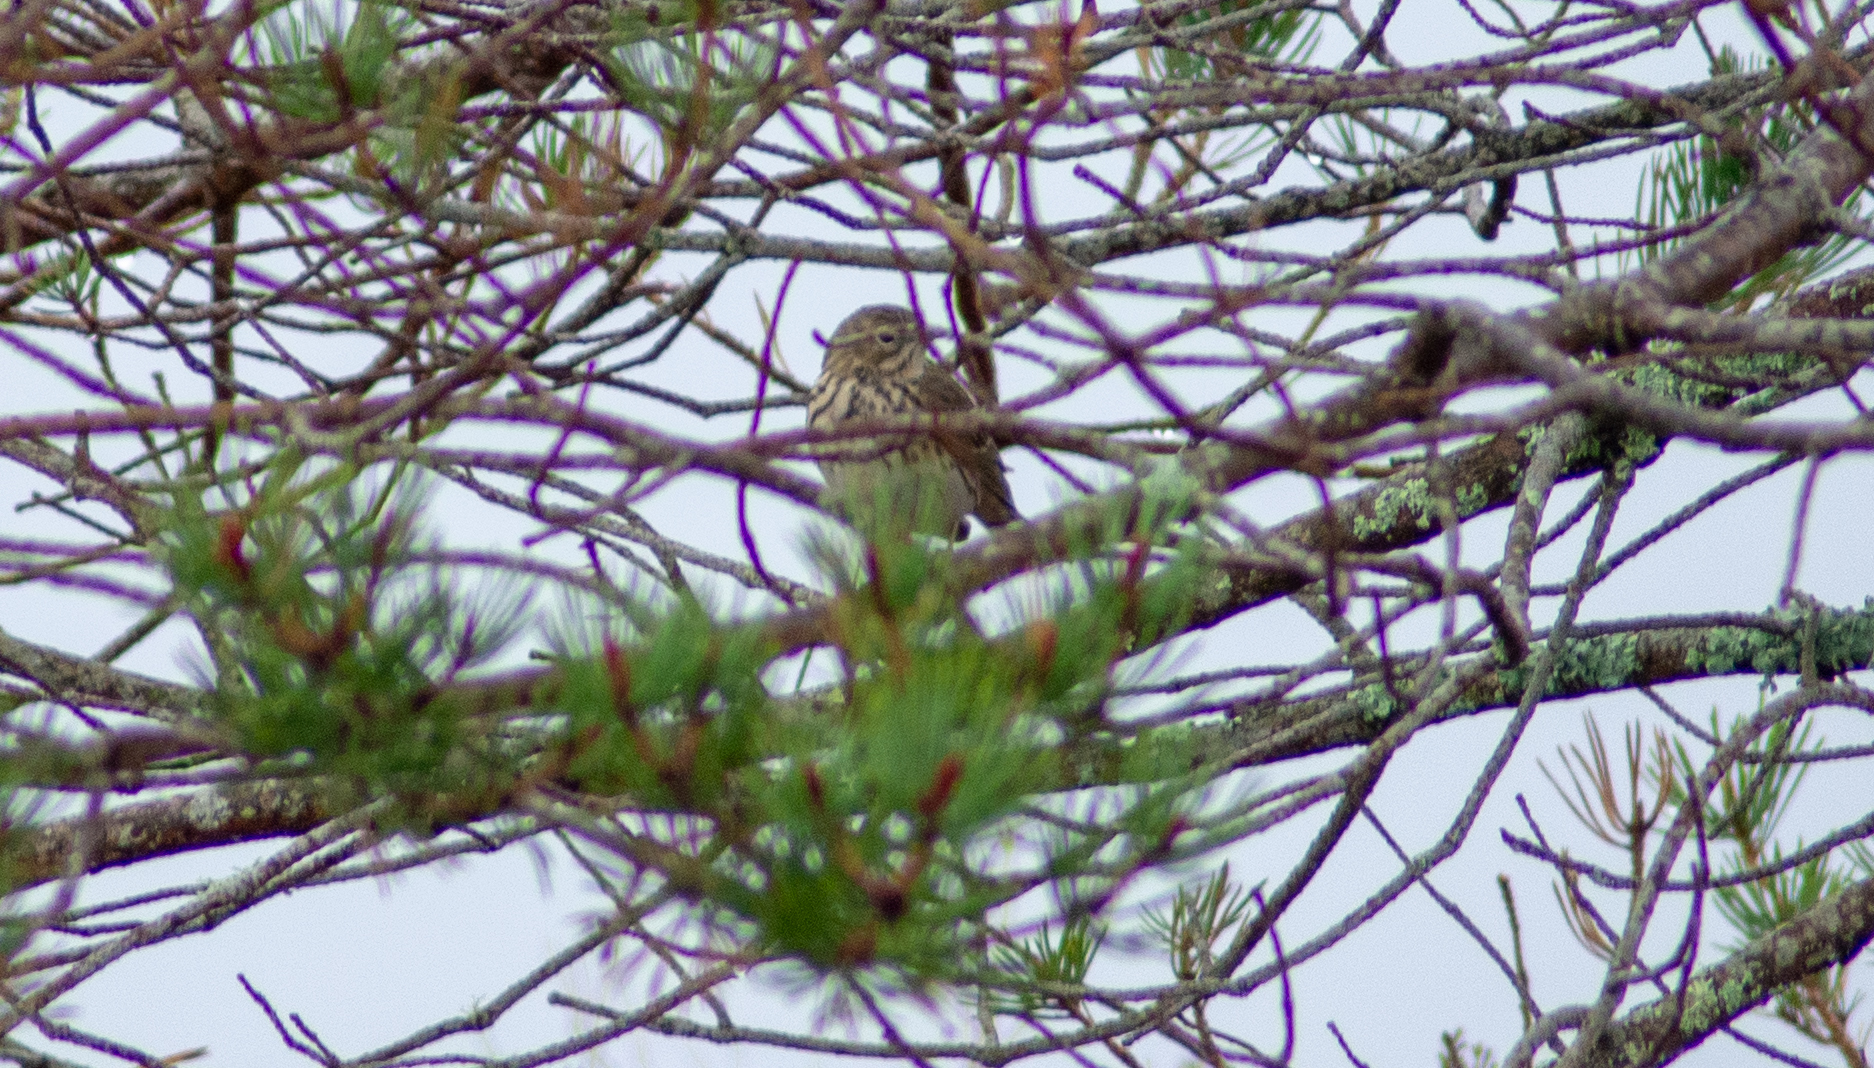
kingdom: Animalia
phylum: Chordata
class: Aves
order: Passeriformes
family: Motacillidae
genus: Anthus
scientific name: Anthus pratensis
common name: Meadow pipit
